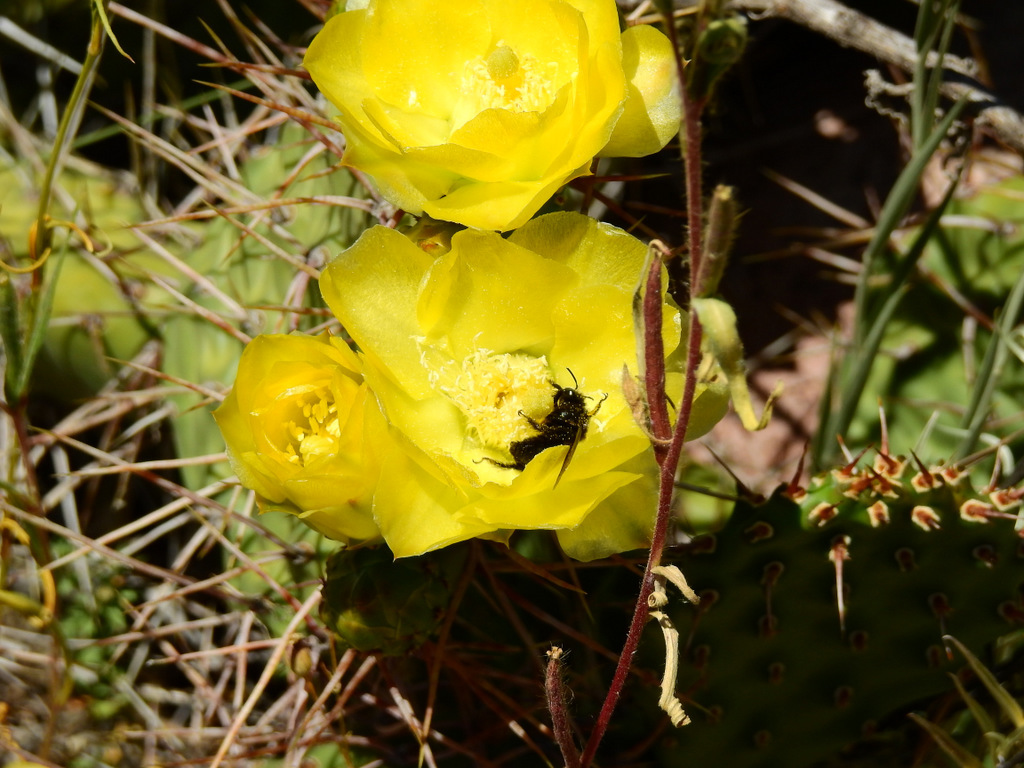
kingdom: Plantae
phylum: Tracheophyta
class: Magnoliopsida
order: Caryophyllales
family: Cactaceae
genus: Opuntia
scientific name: Opuntia sulphurea
